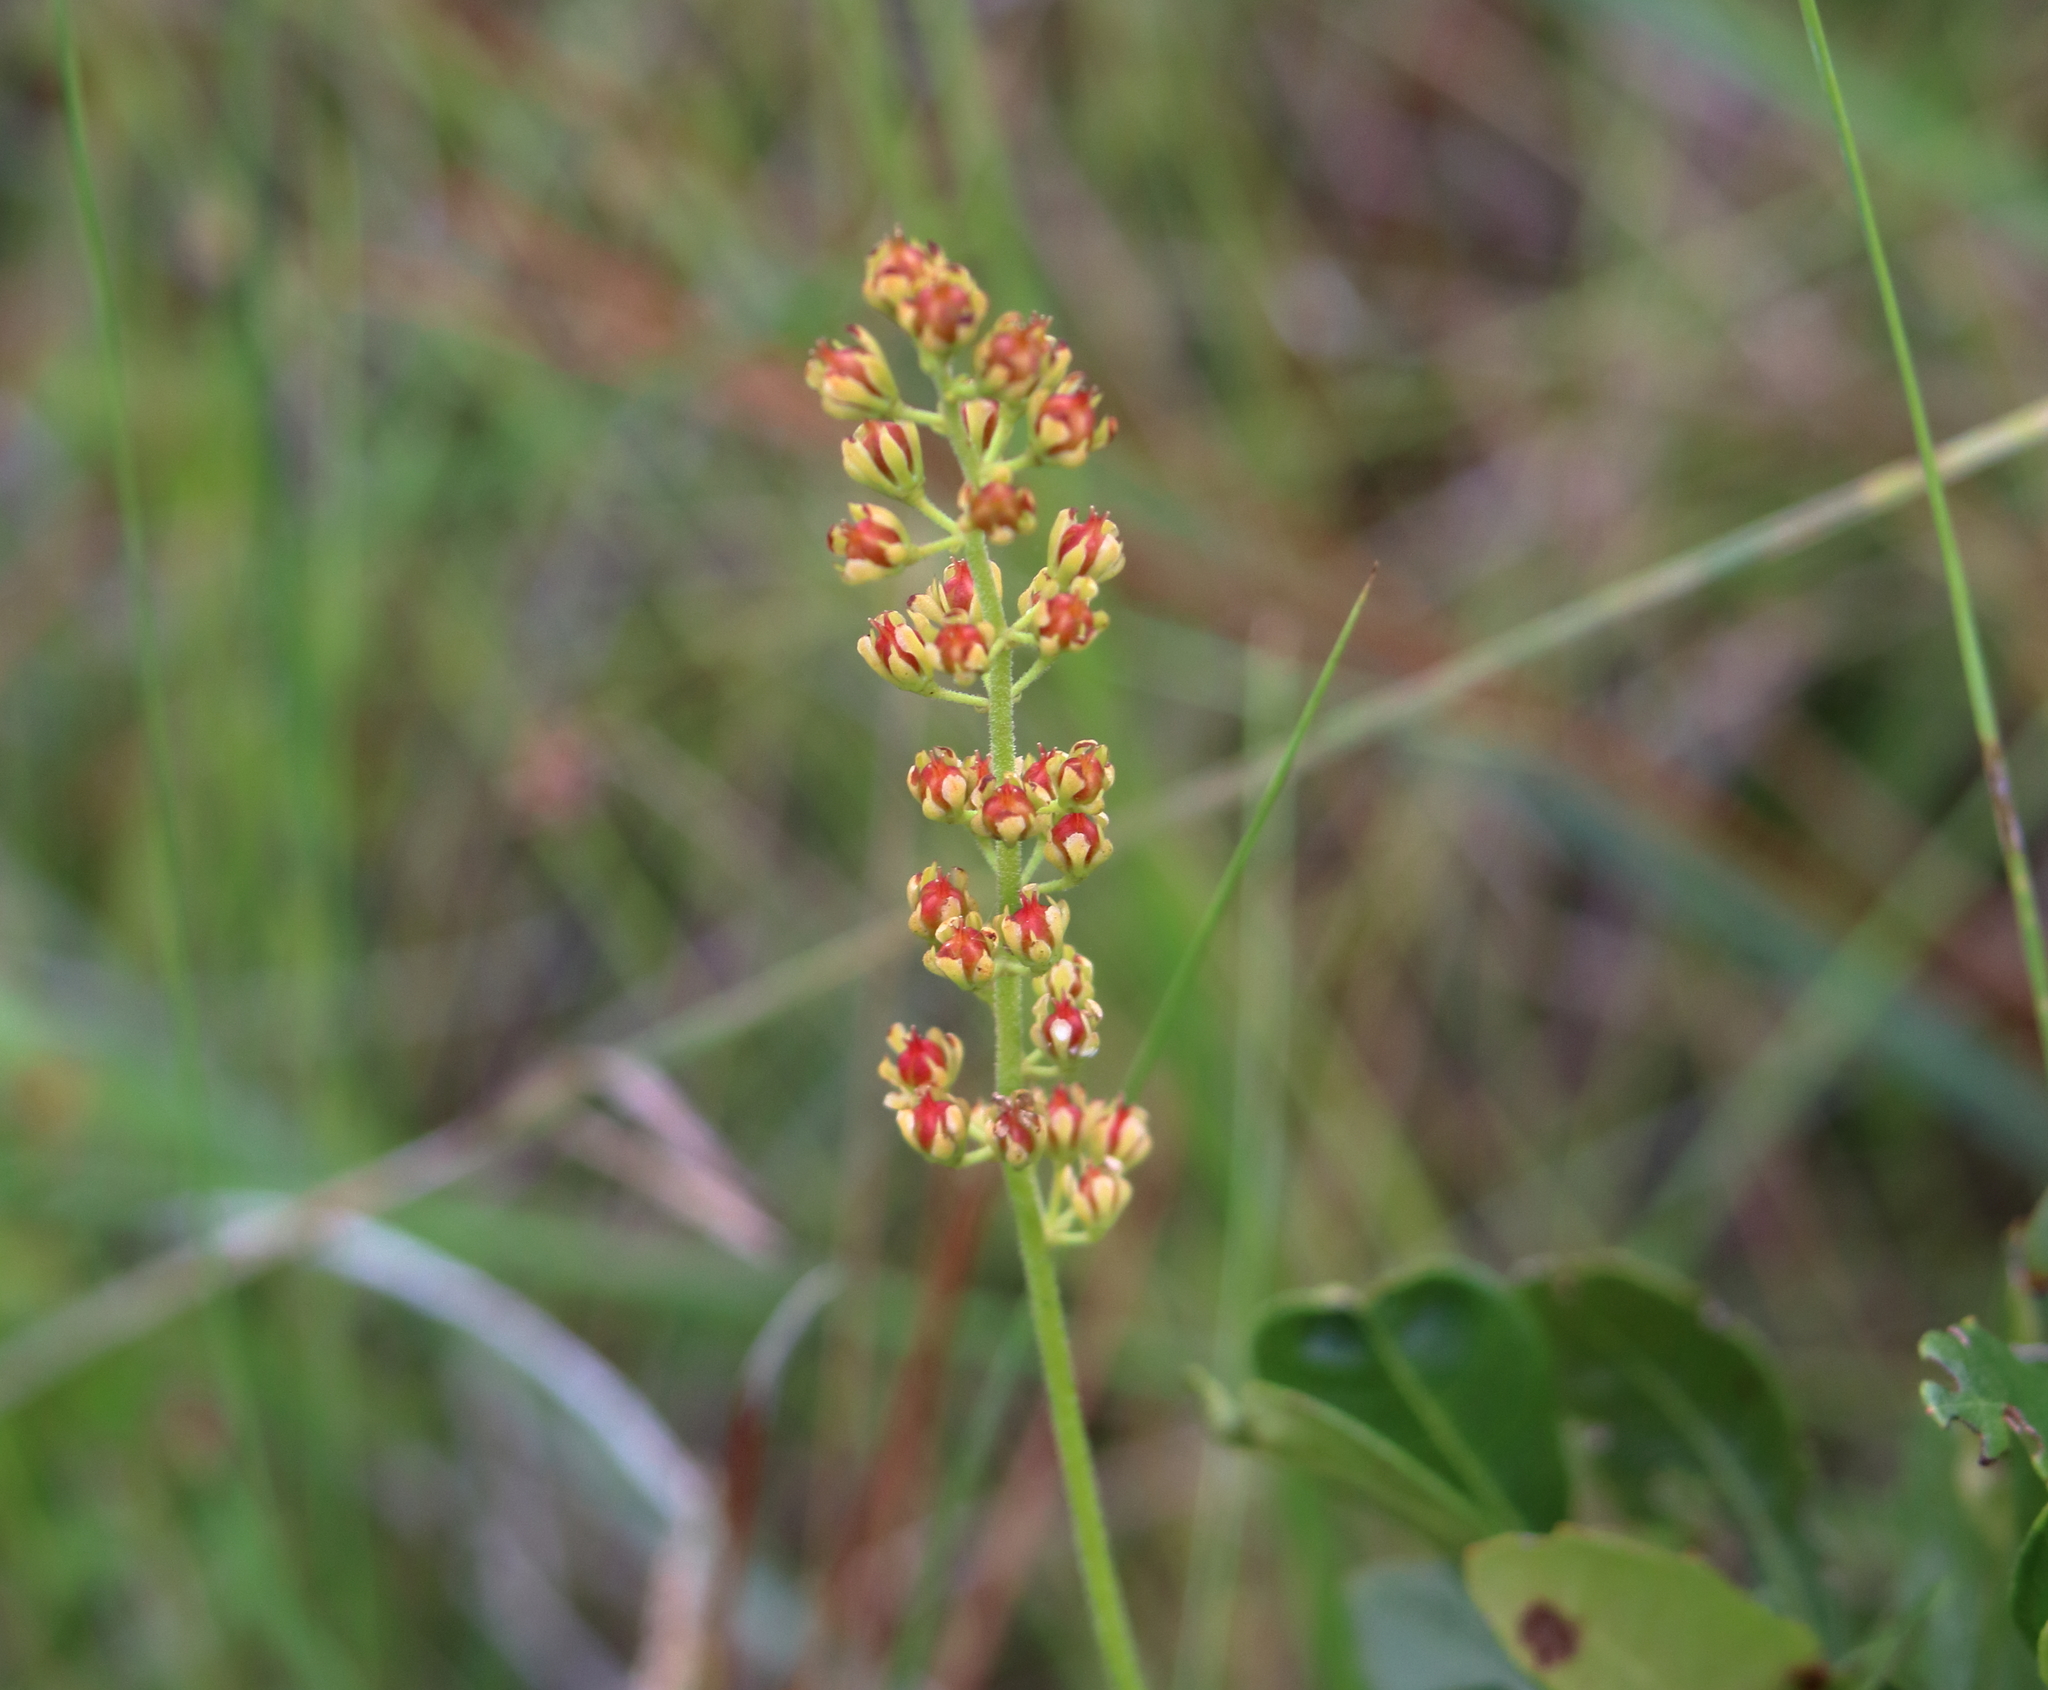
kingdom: Plantae
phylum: Tracheophyta
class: Liliopsida
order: Alismatales
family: Tofieldiaceae
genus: Triantha
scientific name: Triantha racemosa
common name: Coastal false asphodel
